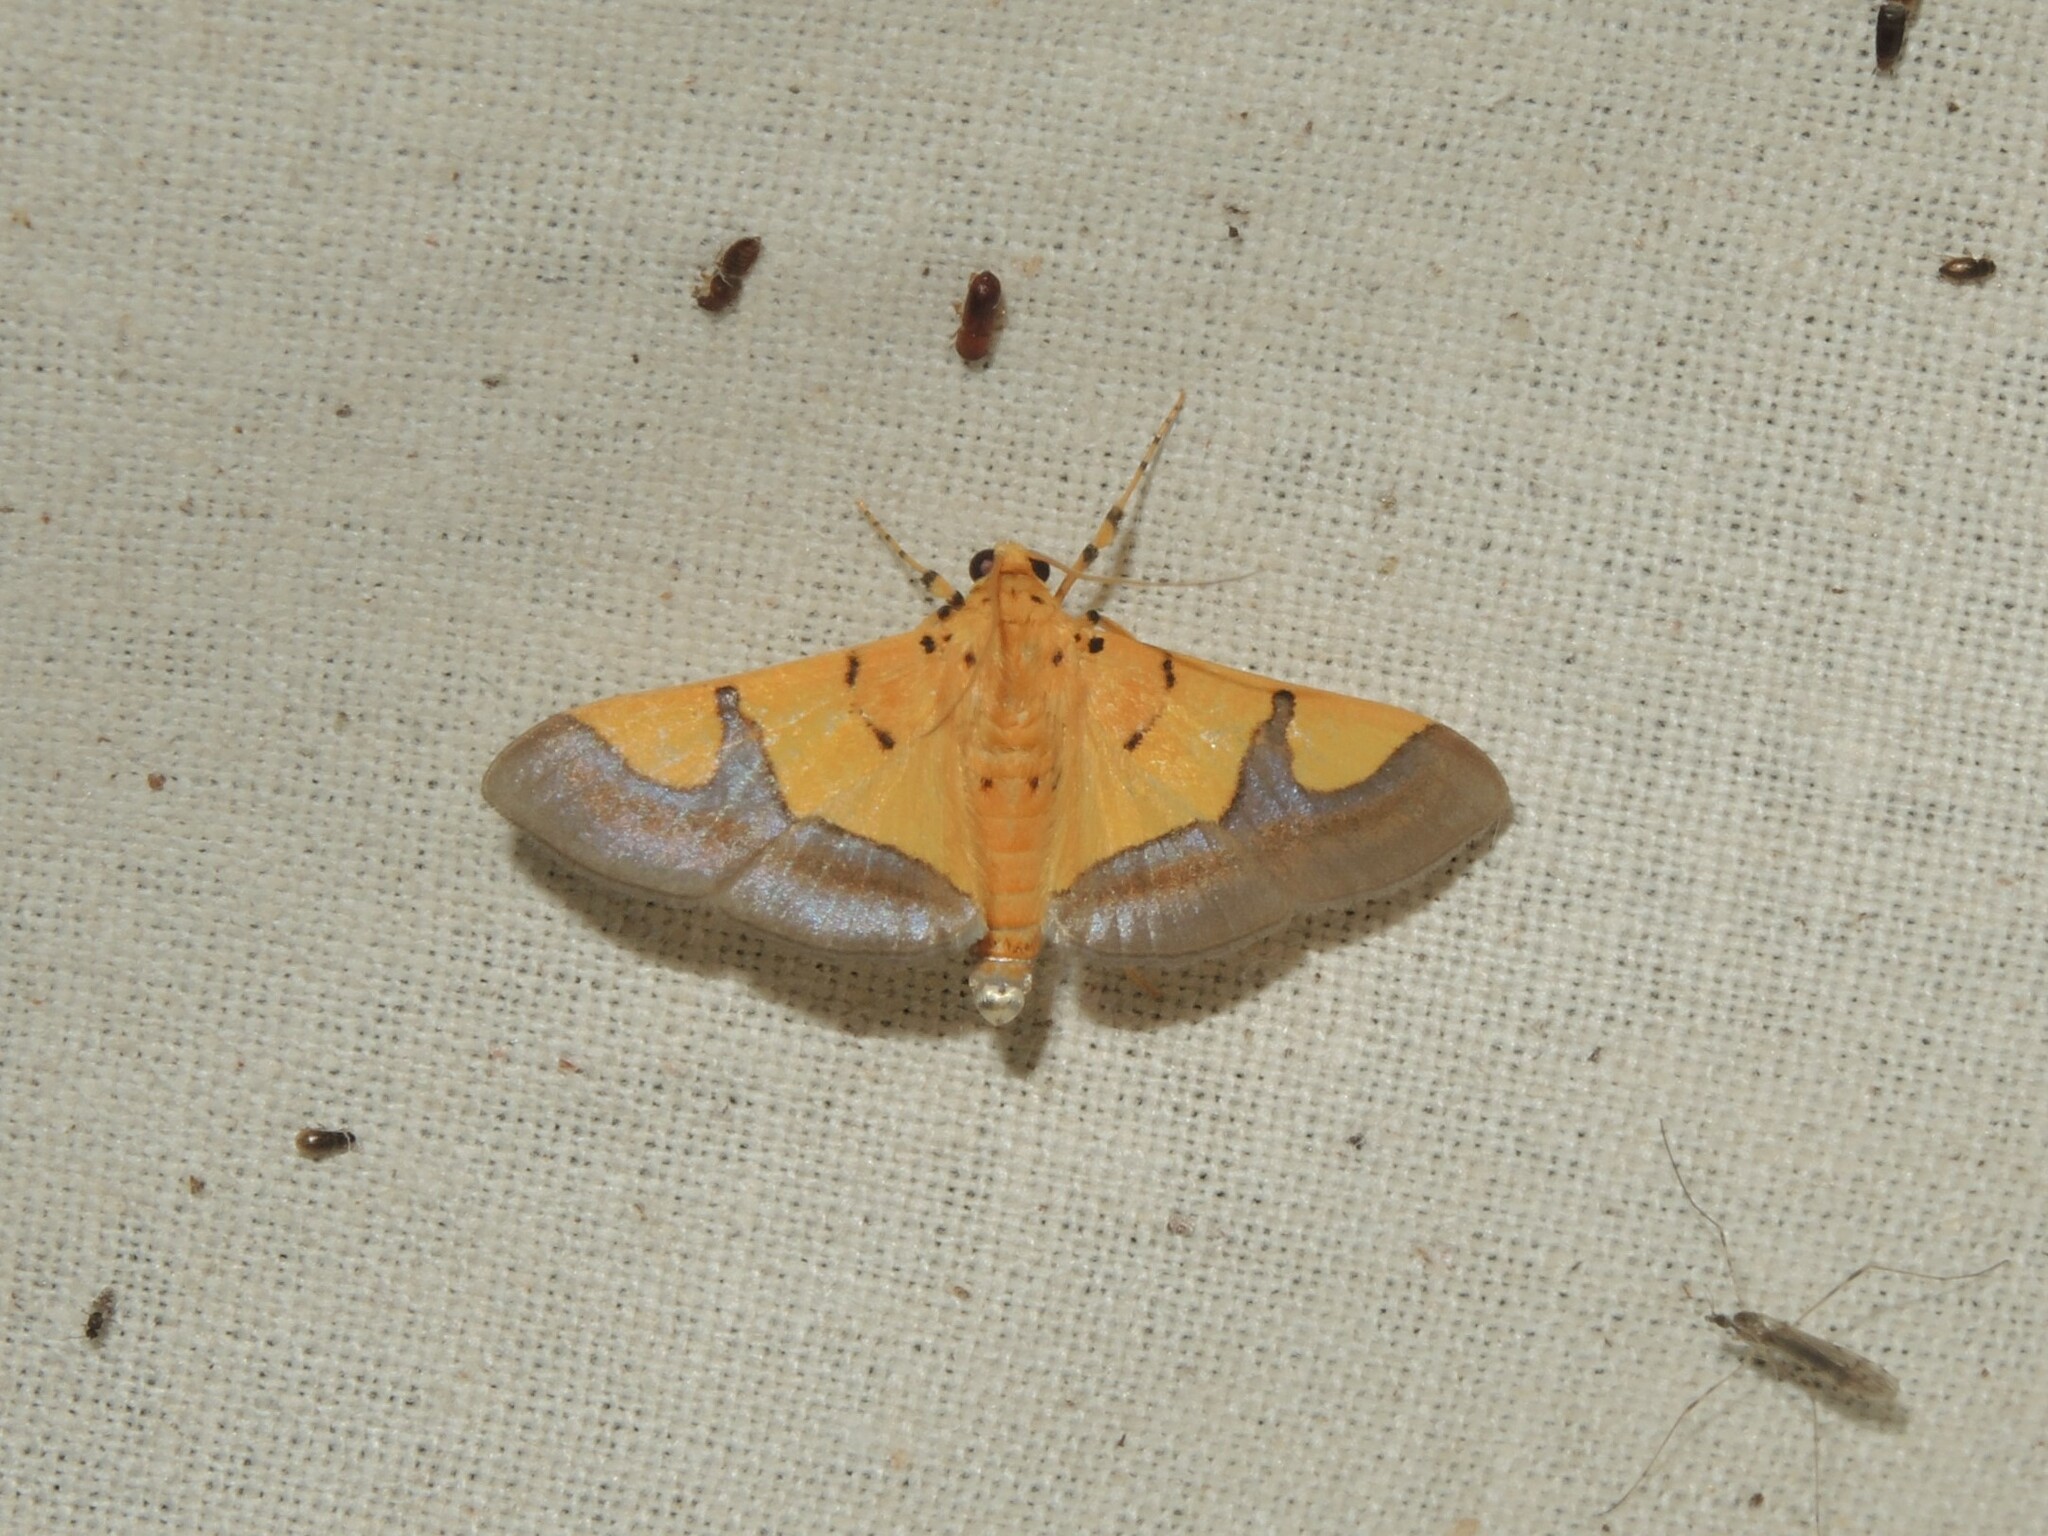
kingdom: Animalia
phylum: Arthropoda
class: Insecta
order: Lepidoptera
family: Crambidae
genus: Botyodes
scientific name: Botyodes
